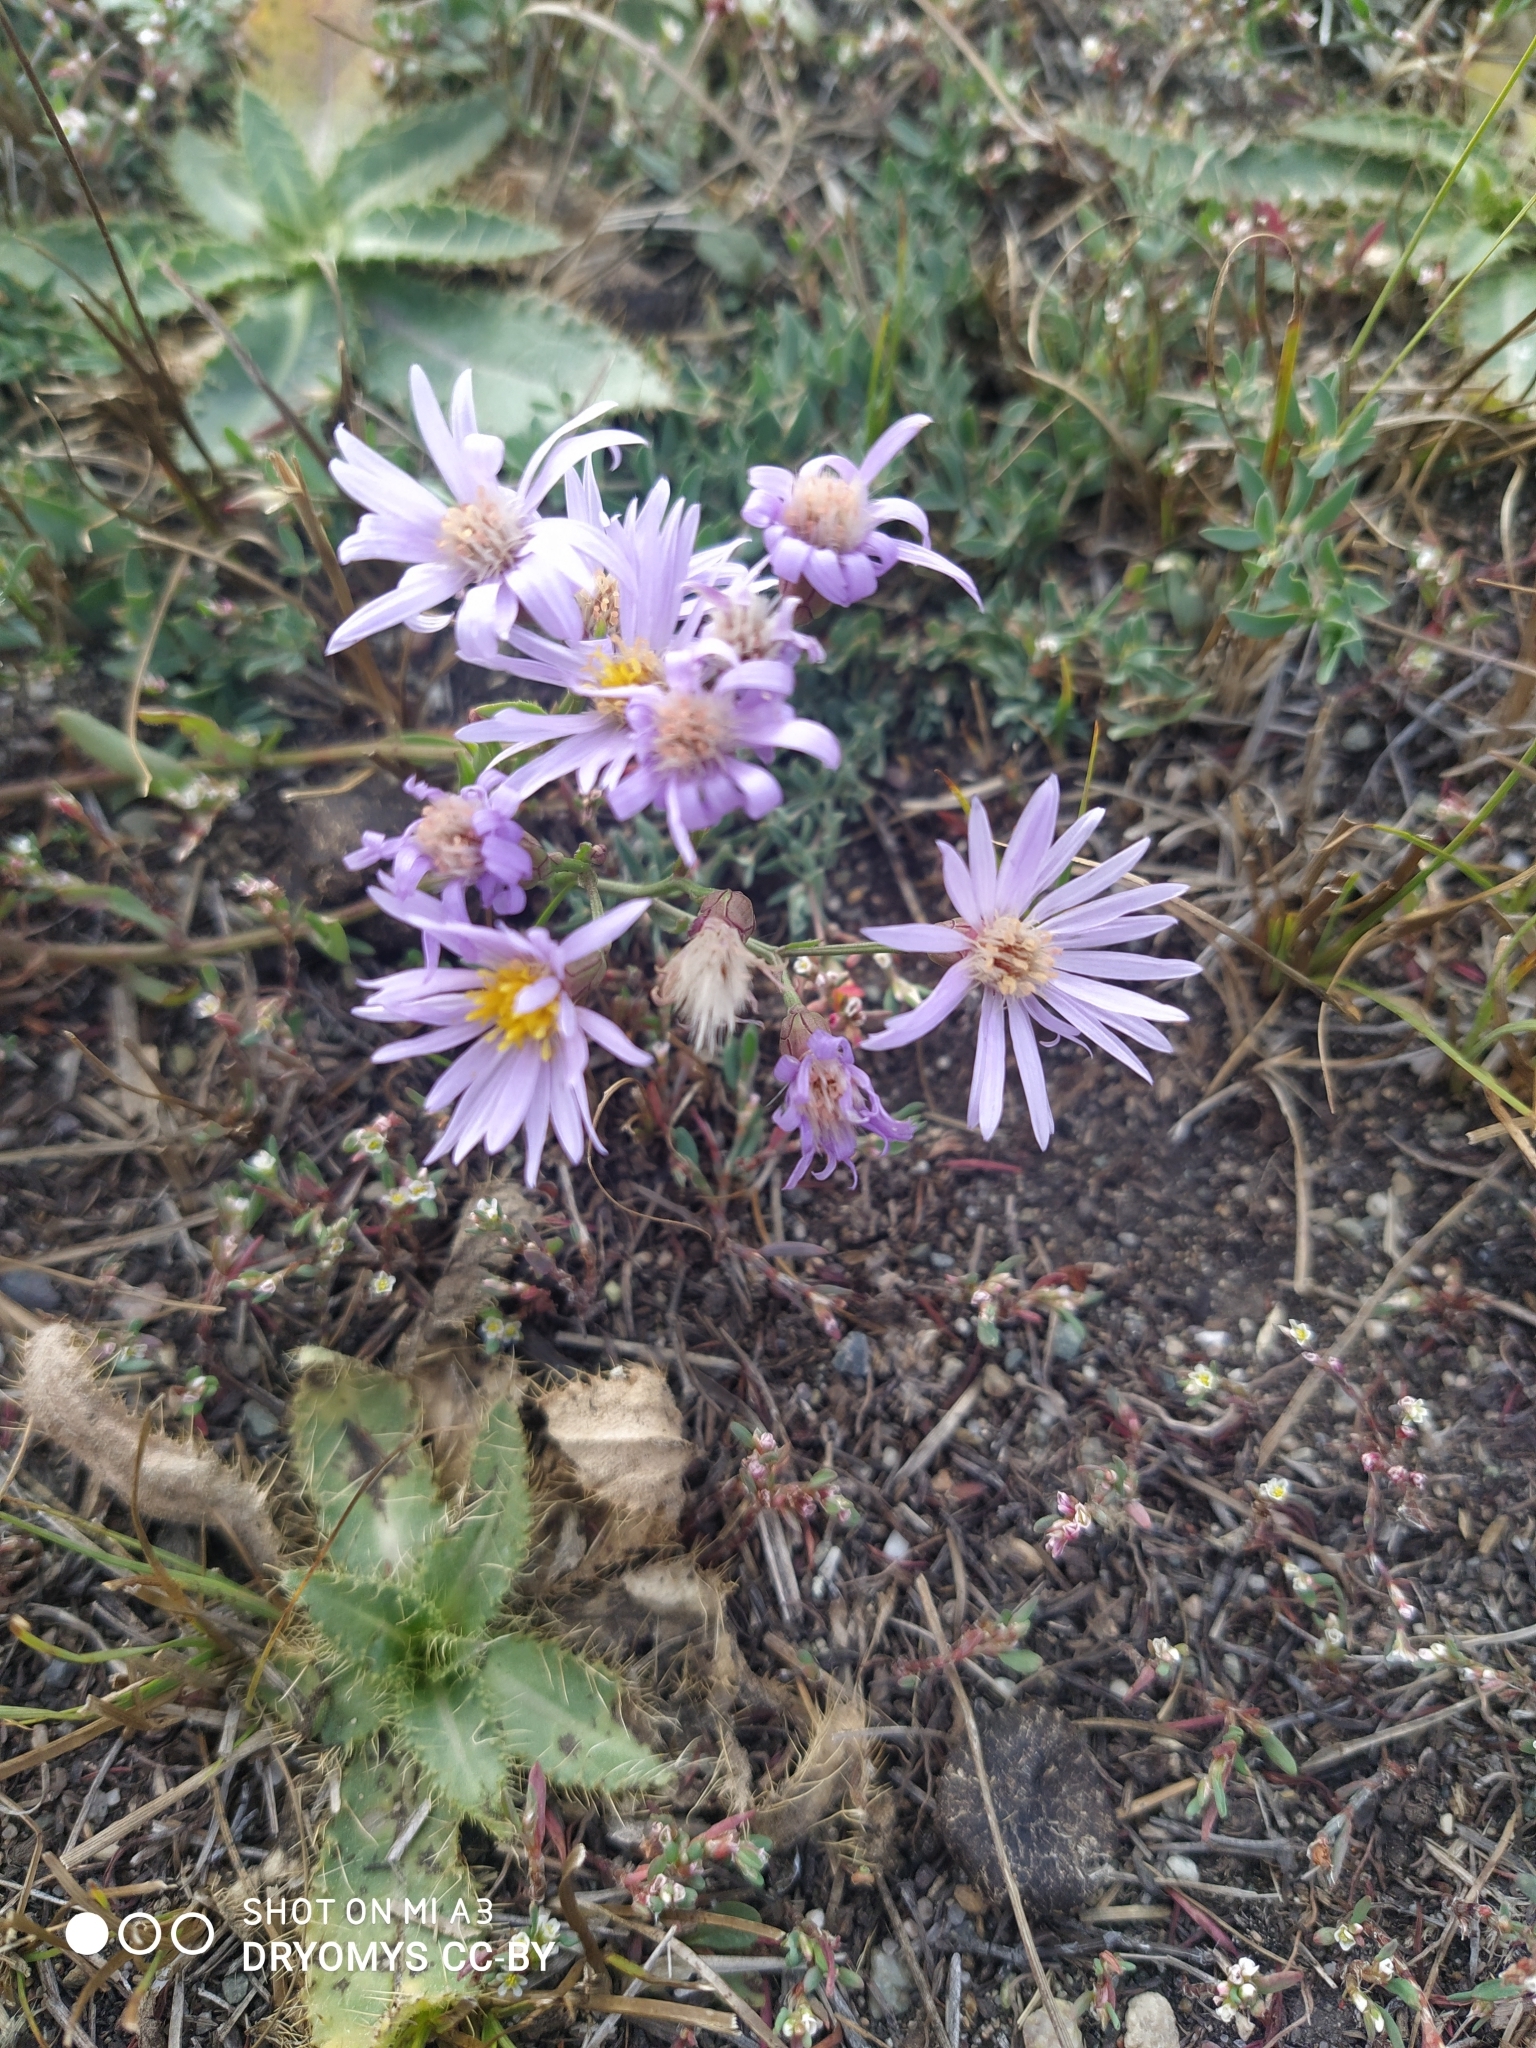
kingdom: Plantae
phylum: Tracheophyta
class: Magnoliopsida
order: Asterales
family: Asteraceae
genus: Galatella
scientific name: Galatella angustissima
